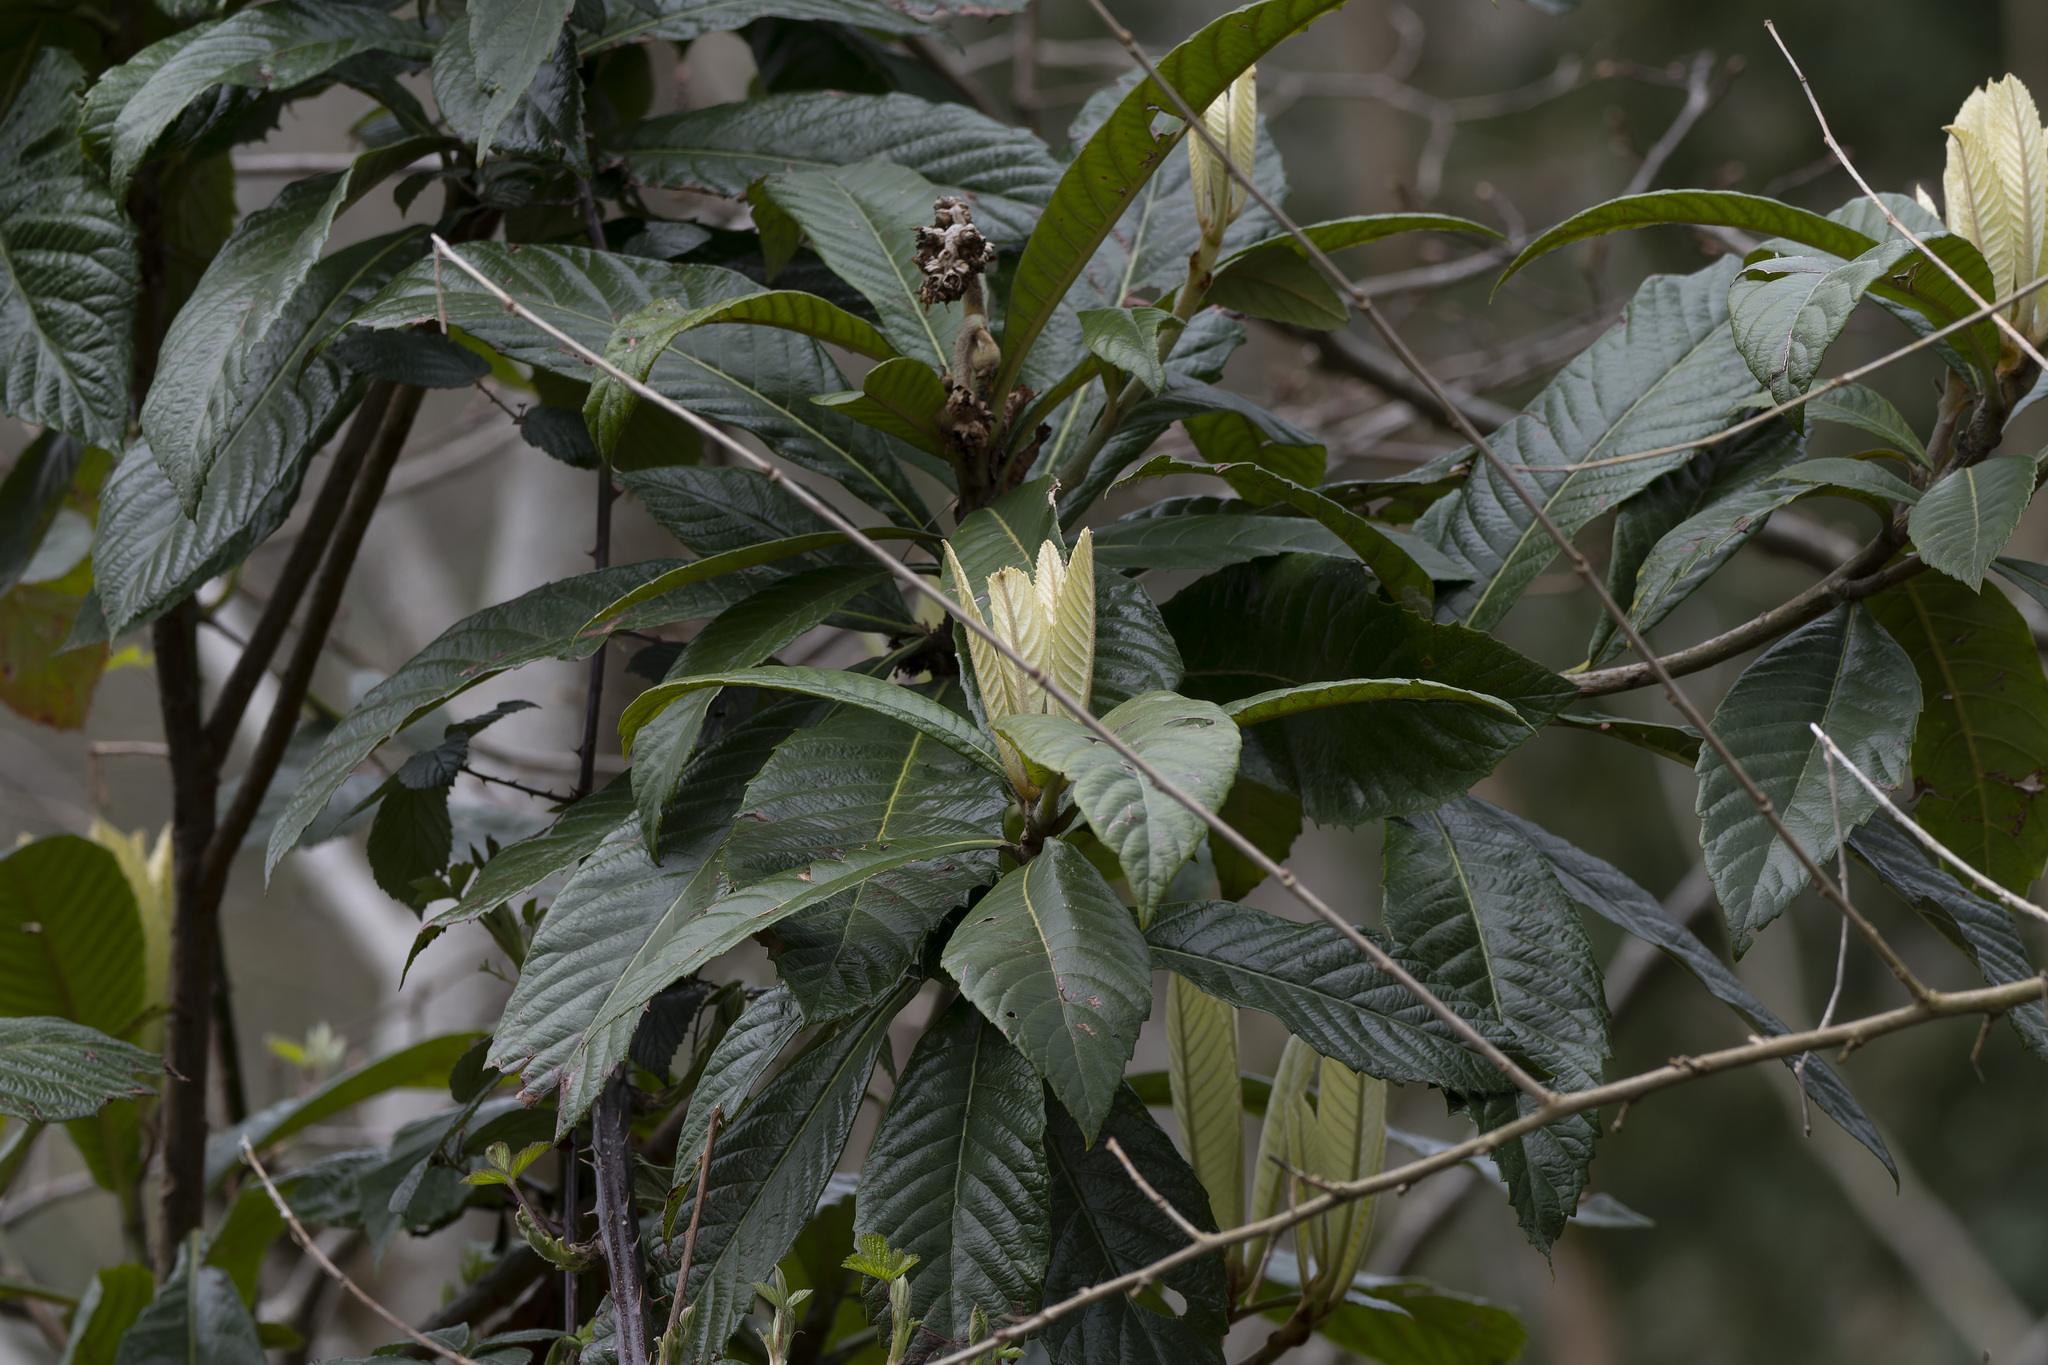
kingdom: Plantae
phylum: Tracheophyta
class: Magnoliopsida
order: Rosales
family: Rosaceae
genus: Rhaphiolepis
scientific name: Rhaphiolepis bibas
